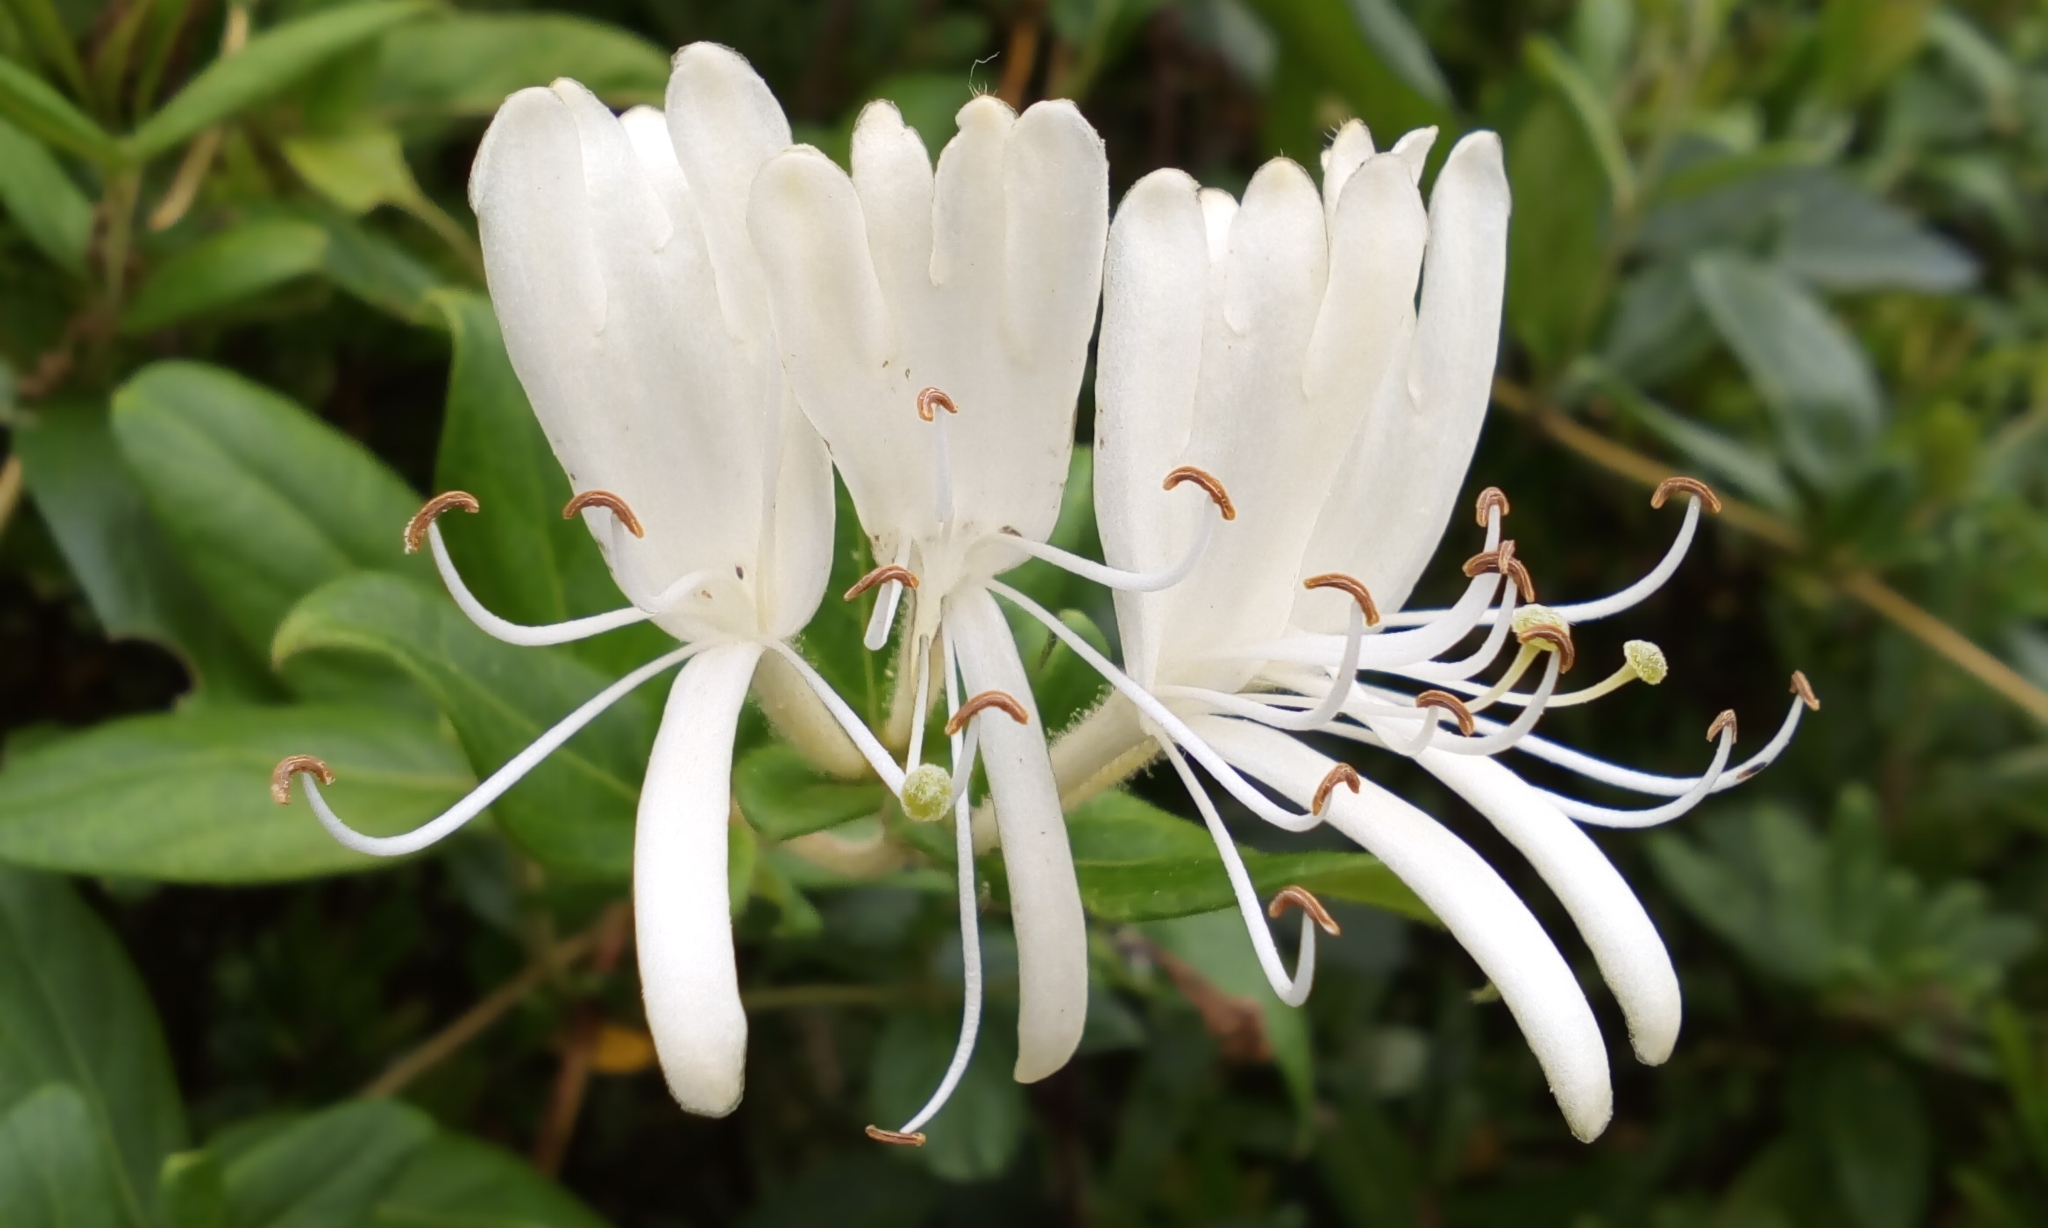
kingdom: Plantae
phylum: Tracheophyta
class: Magnoliopsida
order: Dipsacales
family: Caprifoliaceae
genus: Lonicera
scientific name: Lonicera japonica
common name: Japanese honeysuckle
